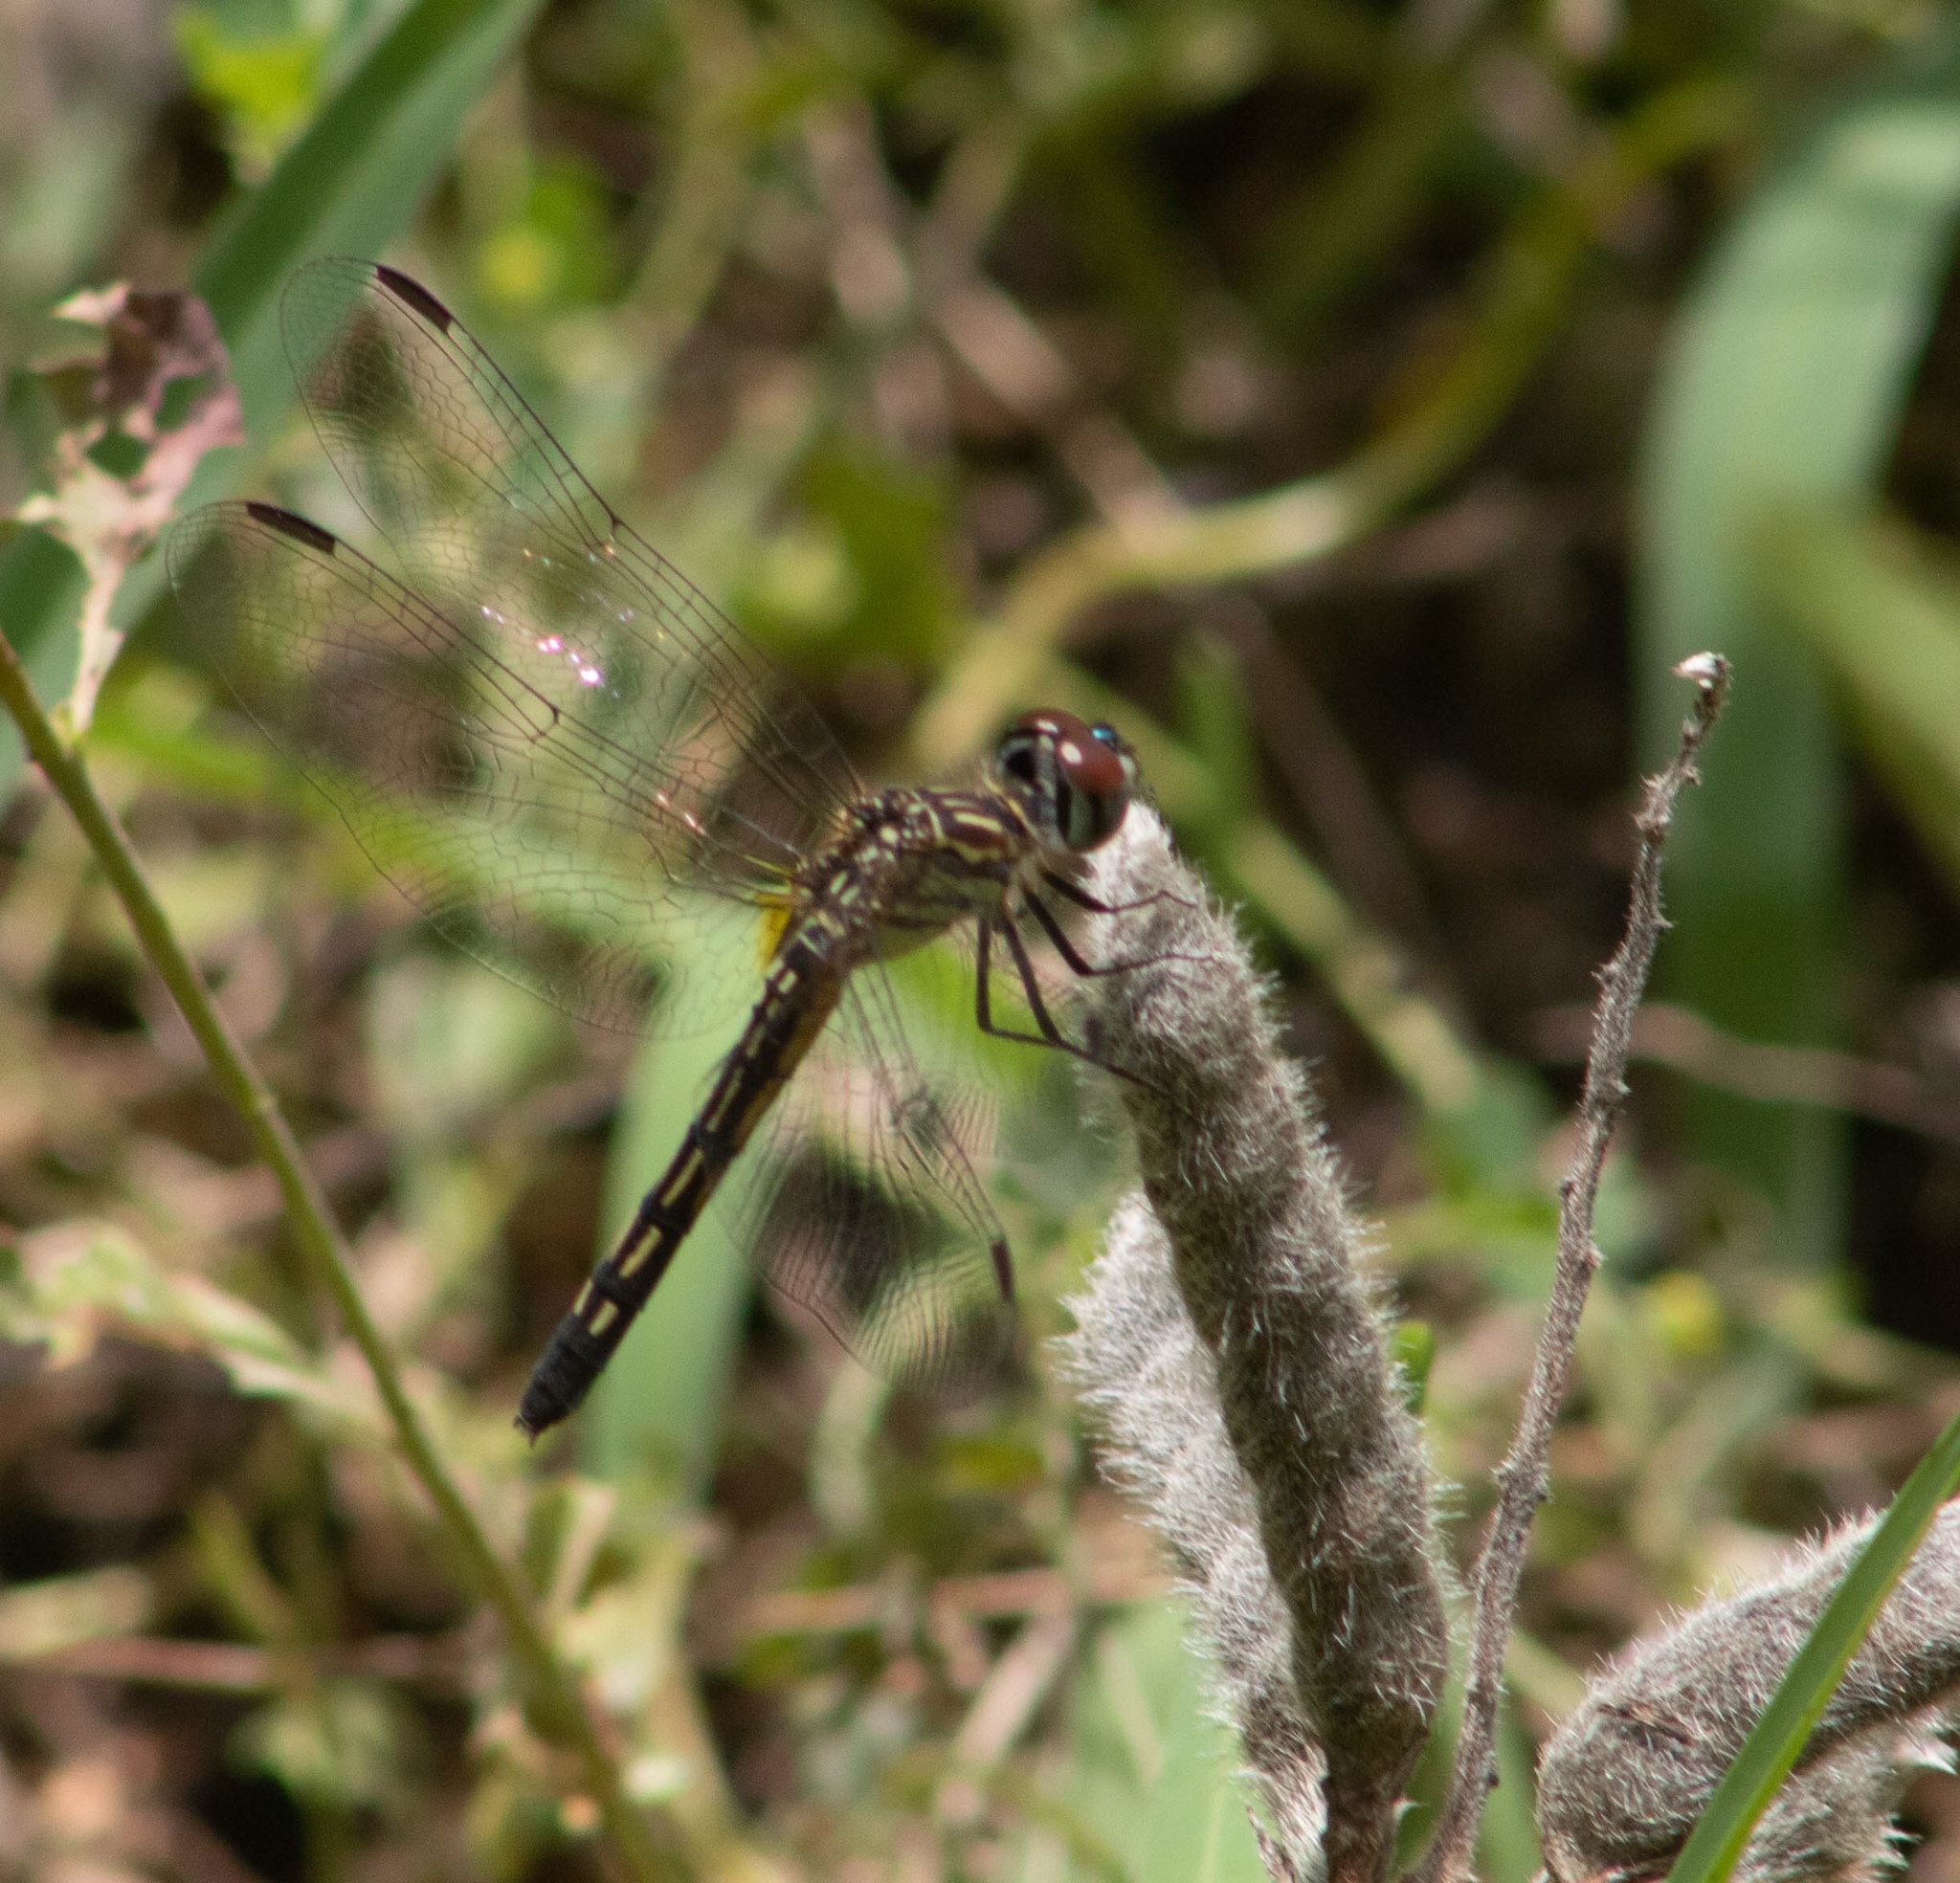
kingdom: Animalia
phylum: Arthropoda
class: Insecta
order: Odonata
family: Libellulidae
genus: Pachydiplax
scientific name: Pachydiplax longipennis
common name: Blue dasher
